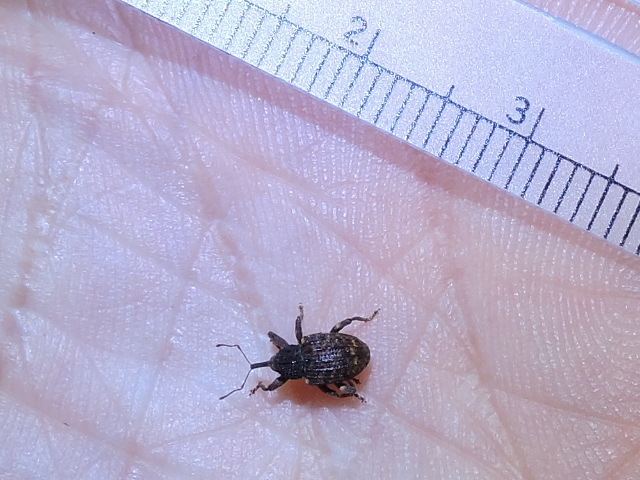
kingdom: Animalia
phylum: Arthropoda
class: Insecta
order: Coleoptera
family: Curculionidae
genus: Conotrachelus
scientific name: Conotrachelus carinifer
